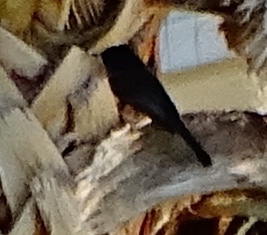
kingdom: Animalia
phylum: Chordata
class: Aves
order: Passeriformes
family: Tyrannidae
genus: Sayornis
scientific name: Sayornis nigricans
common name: Black phoebe
